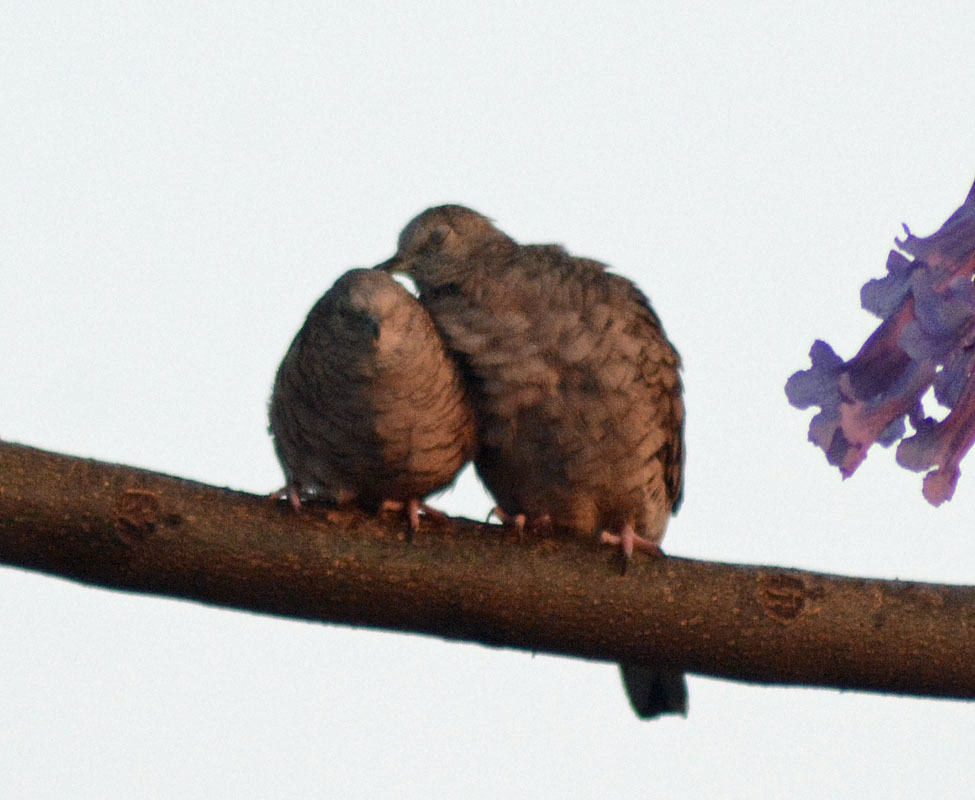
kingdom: Animalia
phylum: Chordata
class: Aves
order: Columbiformes
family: Columbidae
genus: Columbina
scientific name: Columbina inca
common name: Inca dove
